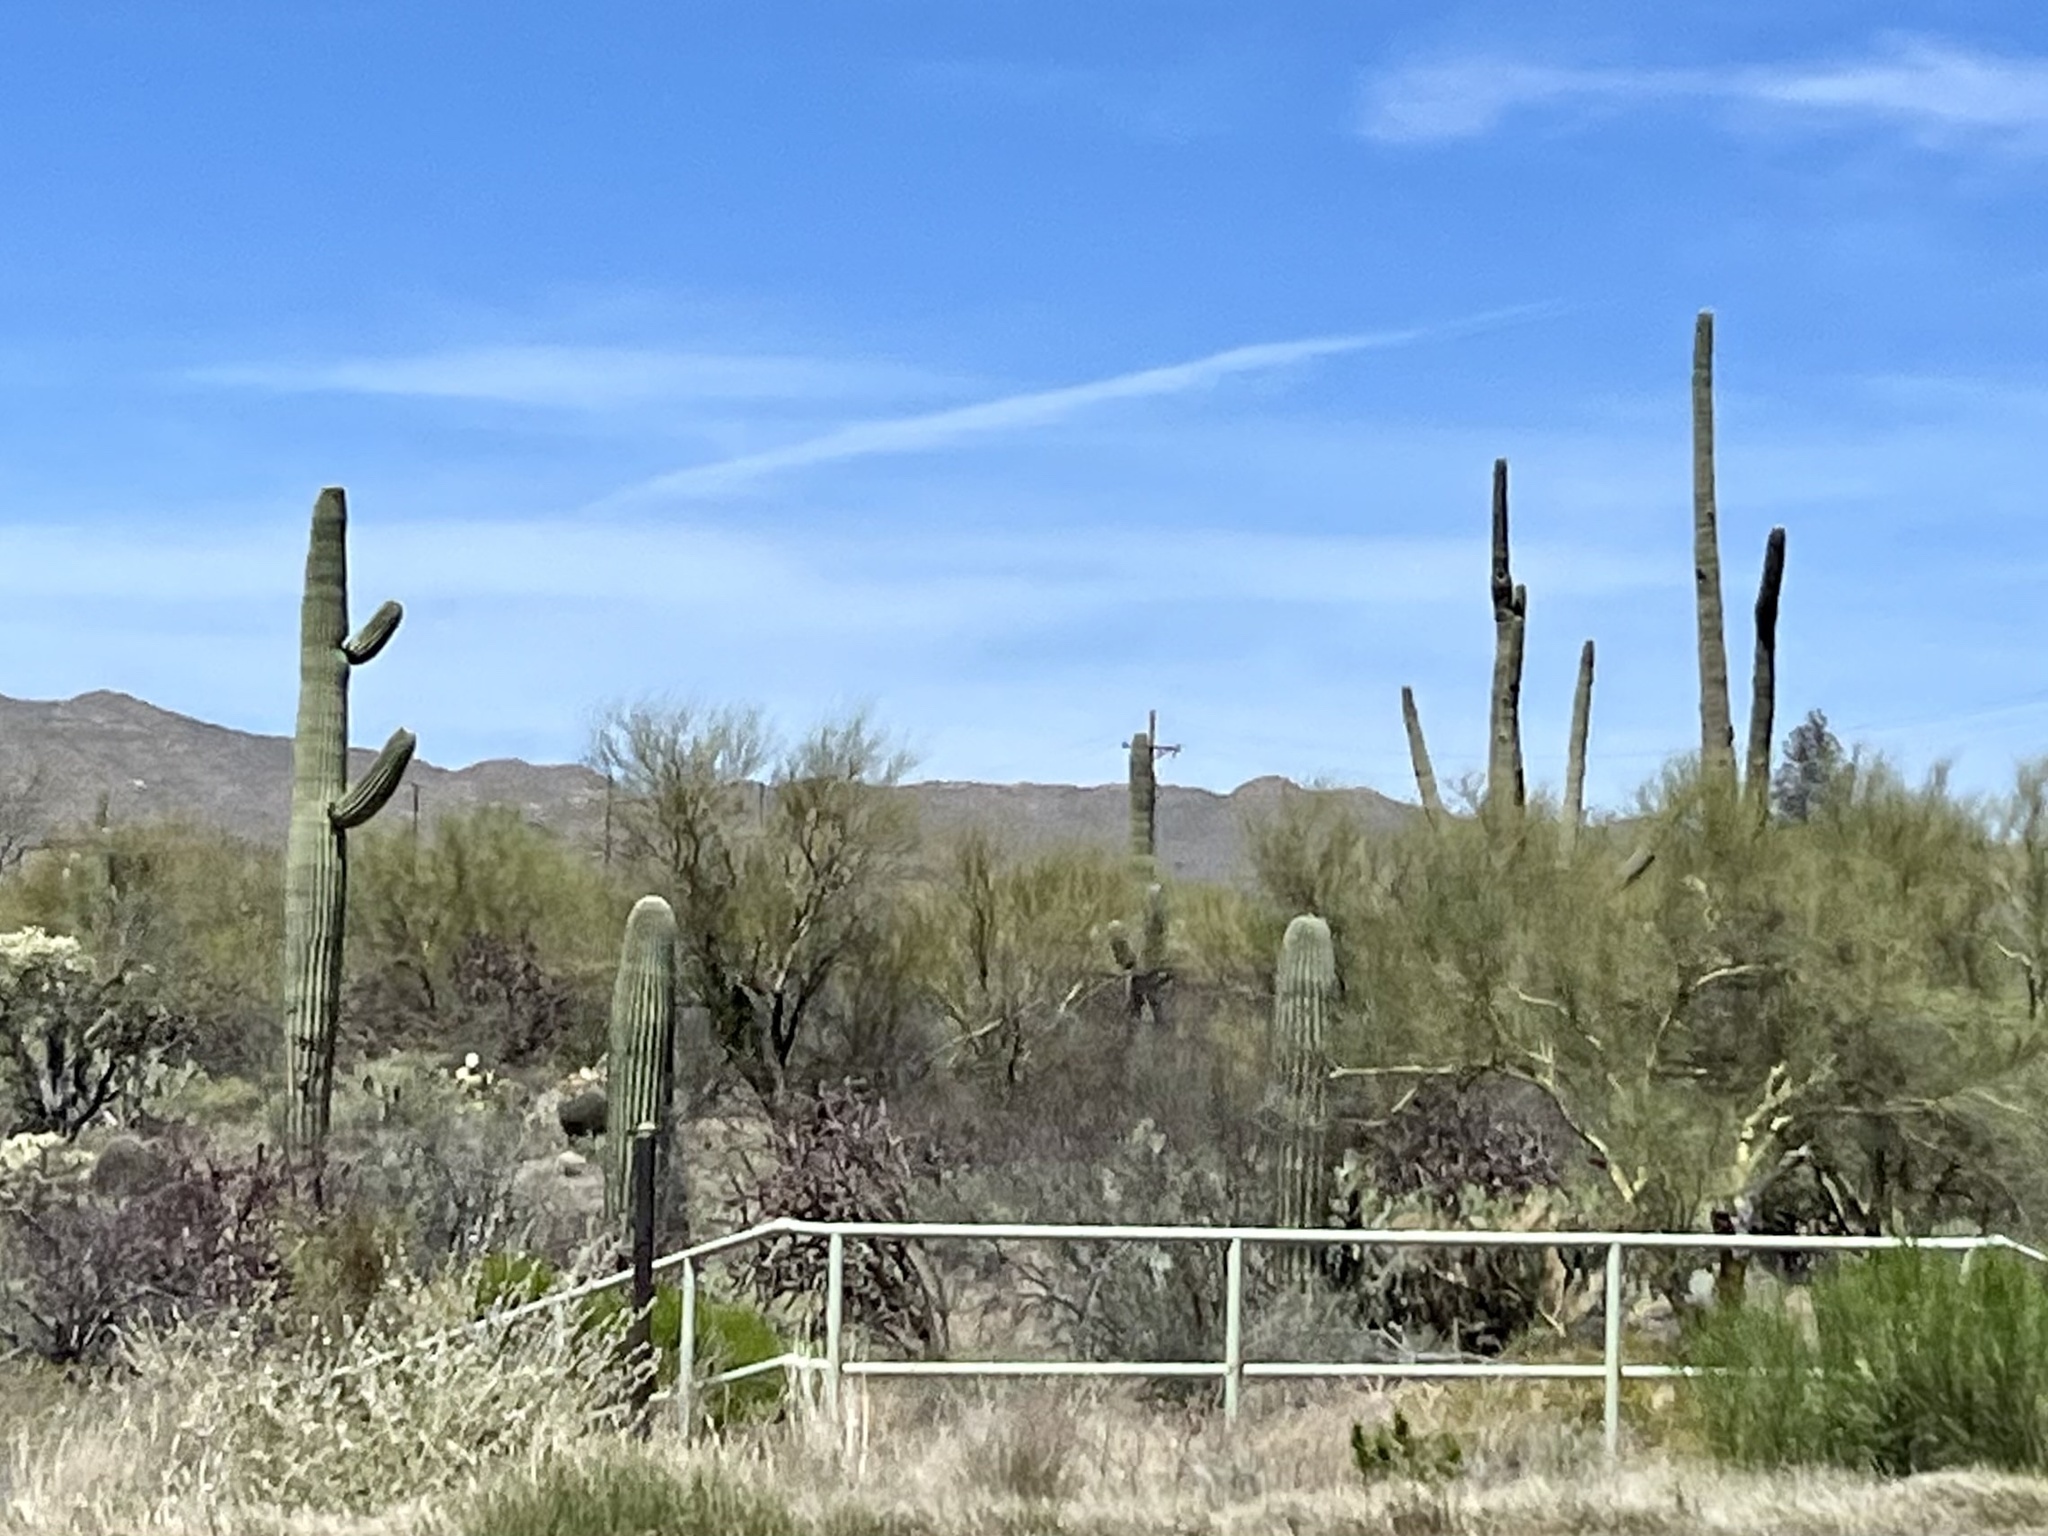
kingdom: Plantae
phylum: Tracheophyta
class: Magnoliopsida
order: Caryophyllales
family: Cactaceae
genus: Carnegiea
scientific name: Carnegiea gigantea
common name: Saguaro
